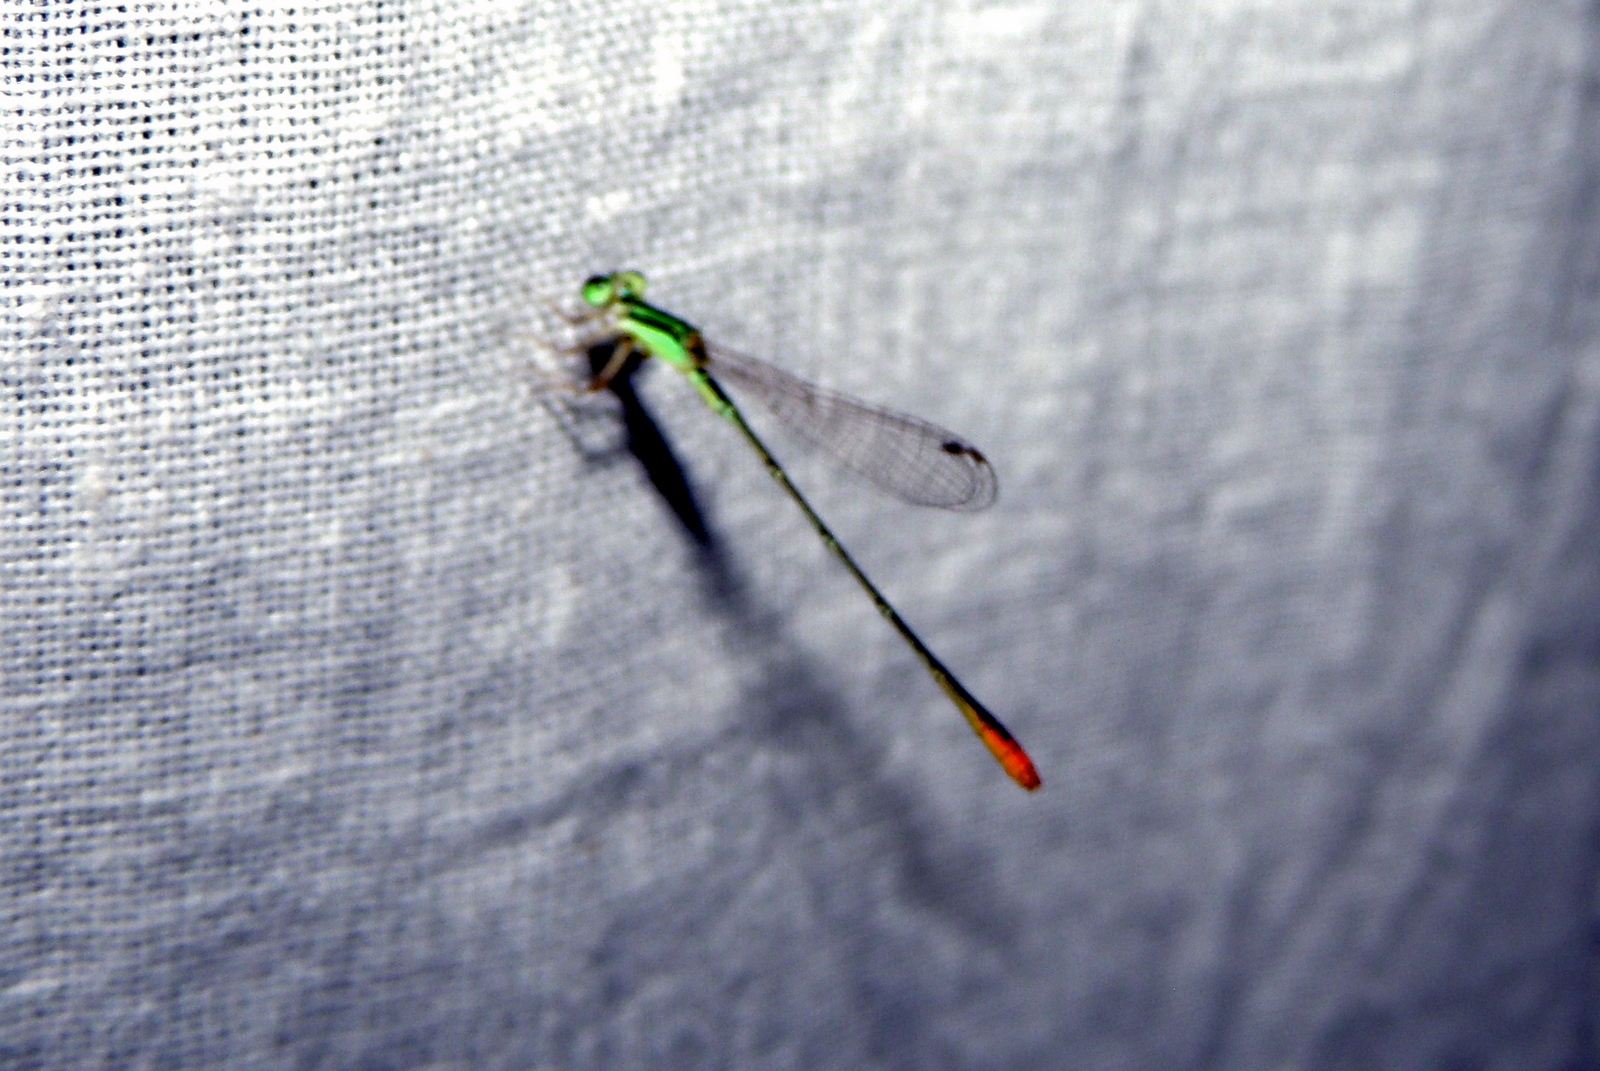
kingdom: Animalia
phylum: Arthropoda
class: Insecta
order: Odonata
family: Coenagrionidae
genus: Agriocnemis
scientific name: Agriocnemis pygmaea
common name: Pygmy wisp
